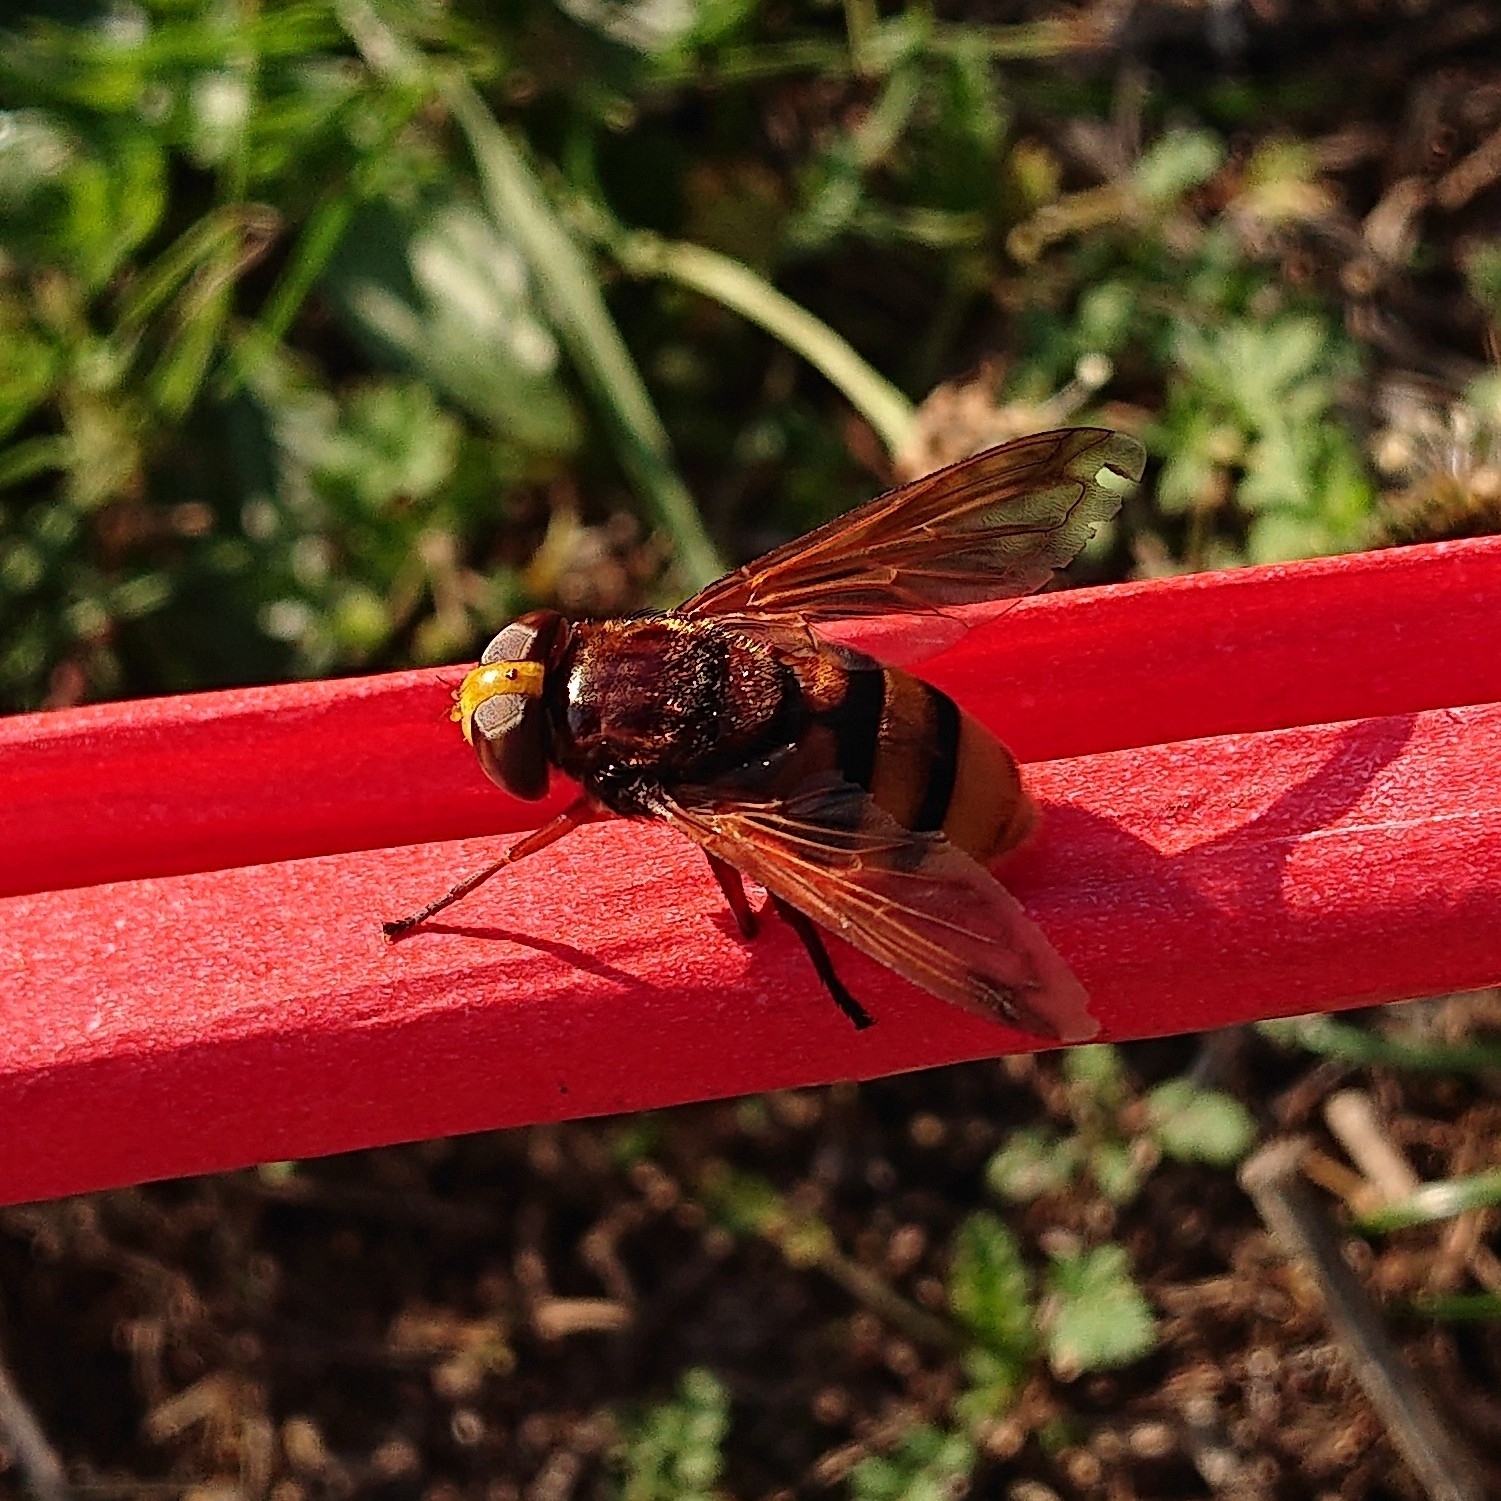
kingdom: Animalia
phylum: Arthropoda
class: Insecta
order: Diptera
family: Syrphidae
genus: Volucella
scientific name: Volucella zonaria
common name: Hornet hoverfly
